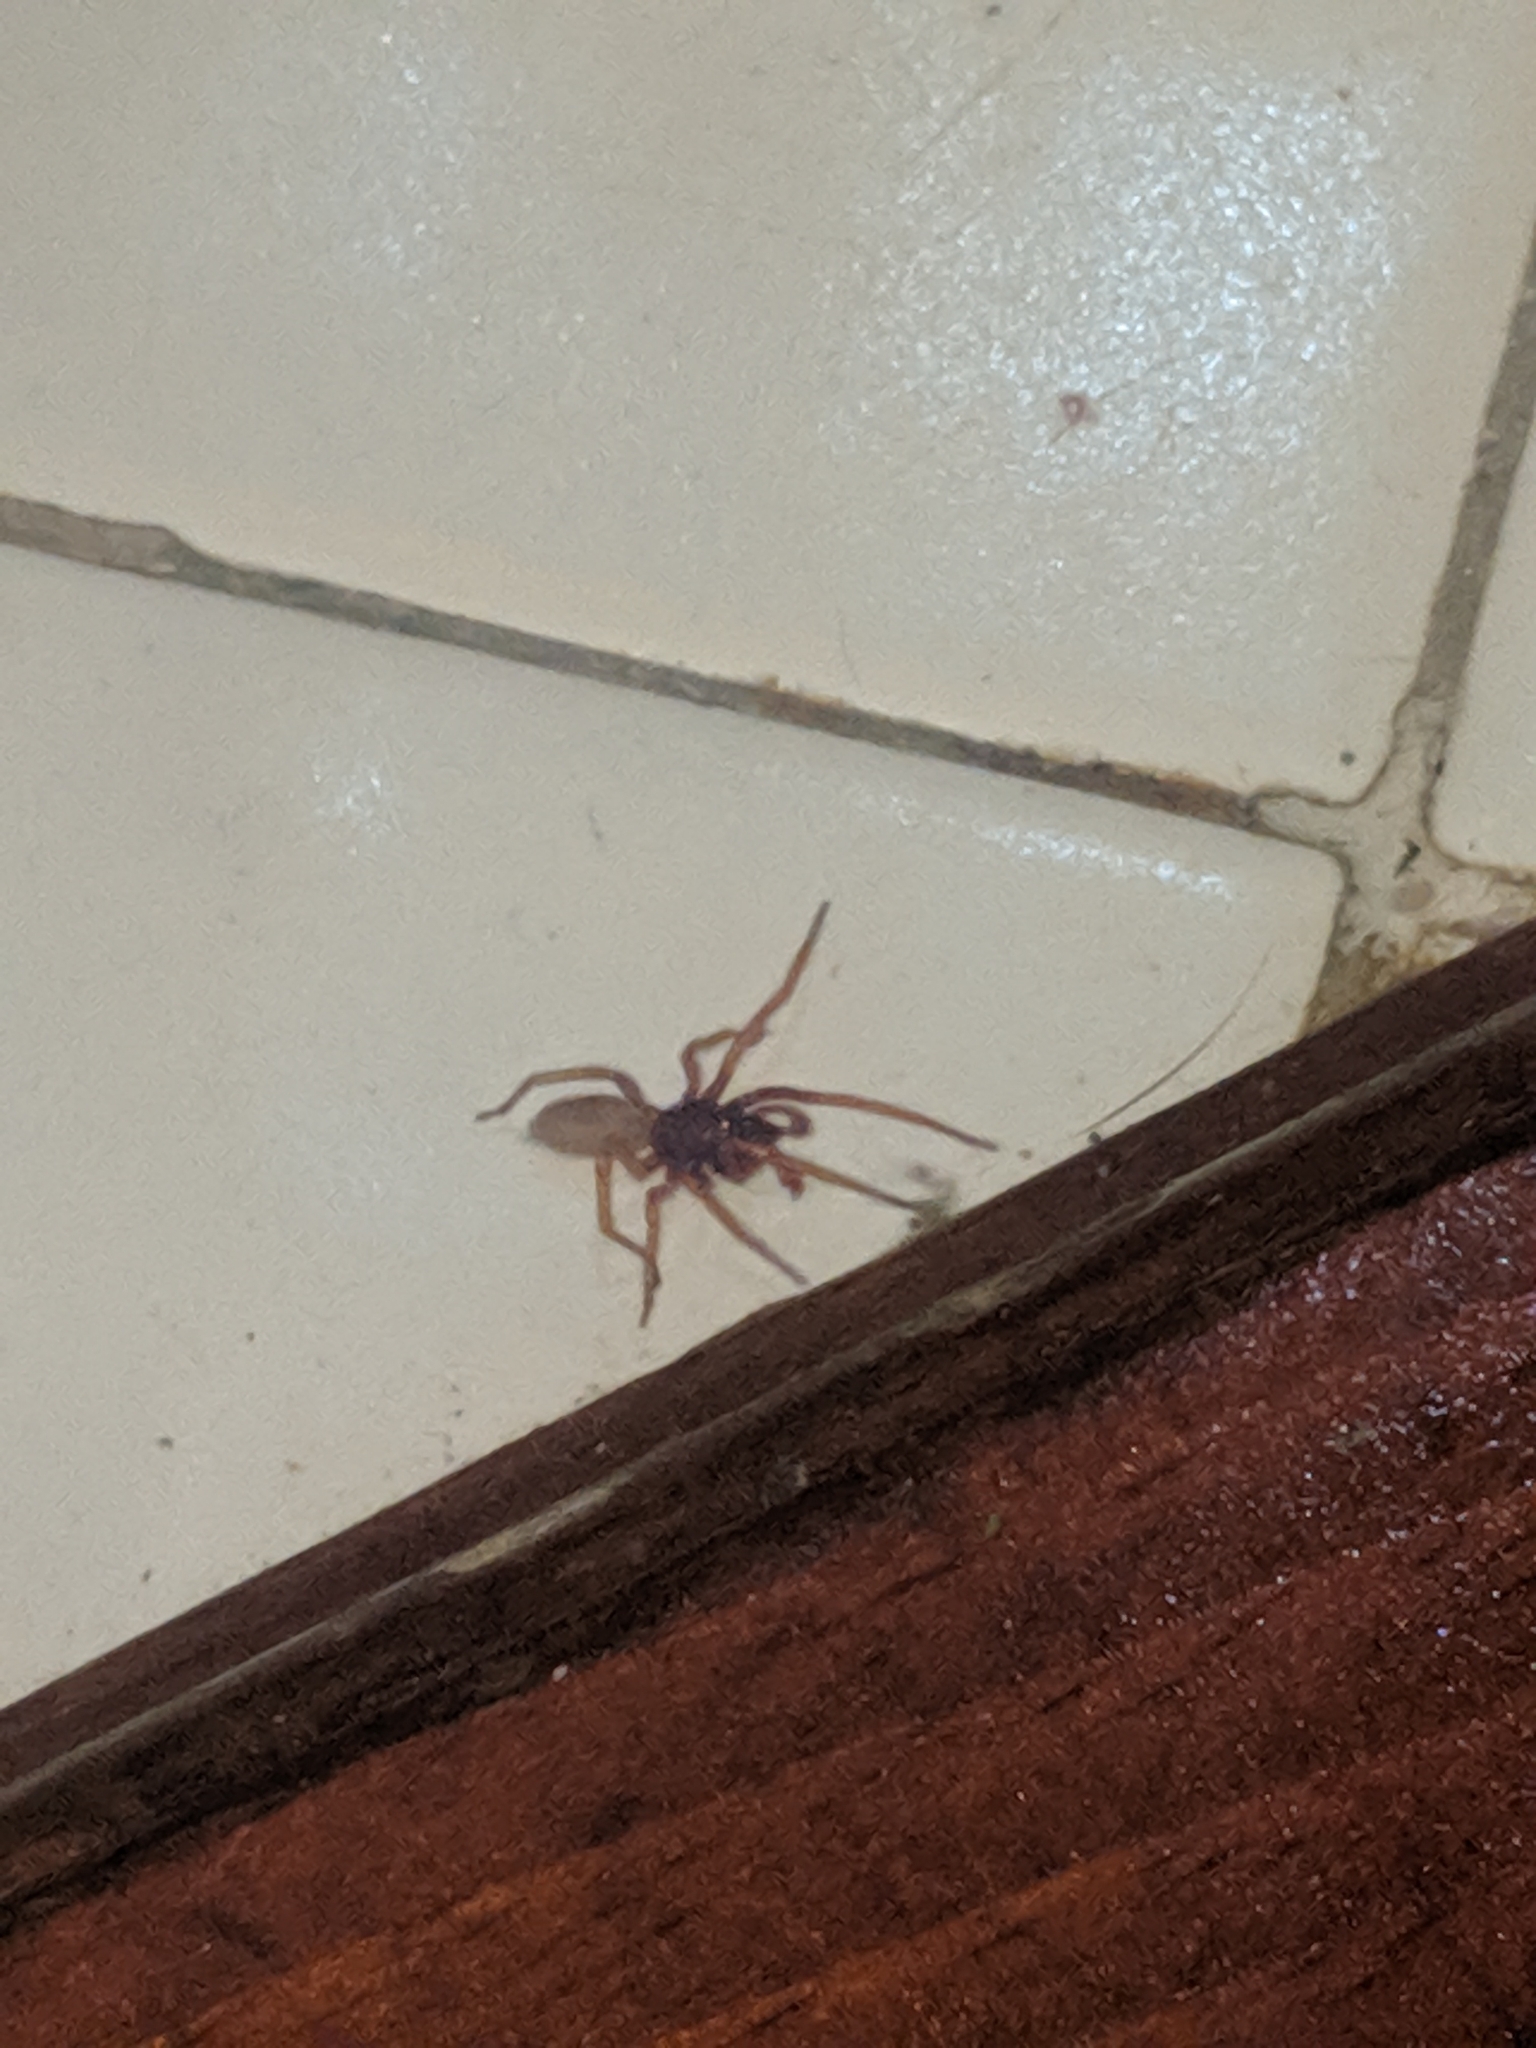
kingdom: Animalia
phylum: Arthropoda
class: Arachnida
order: Araneae
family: Dysderidae
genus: Dysdera
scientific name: Dysdera crocata
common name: Woodlouse spider
